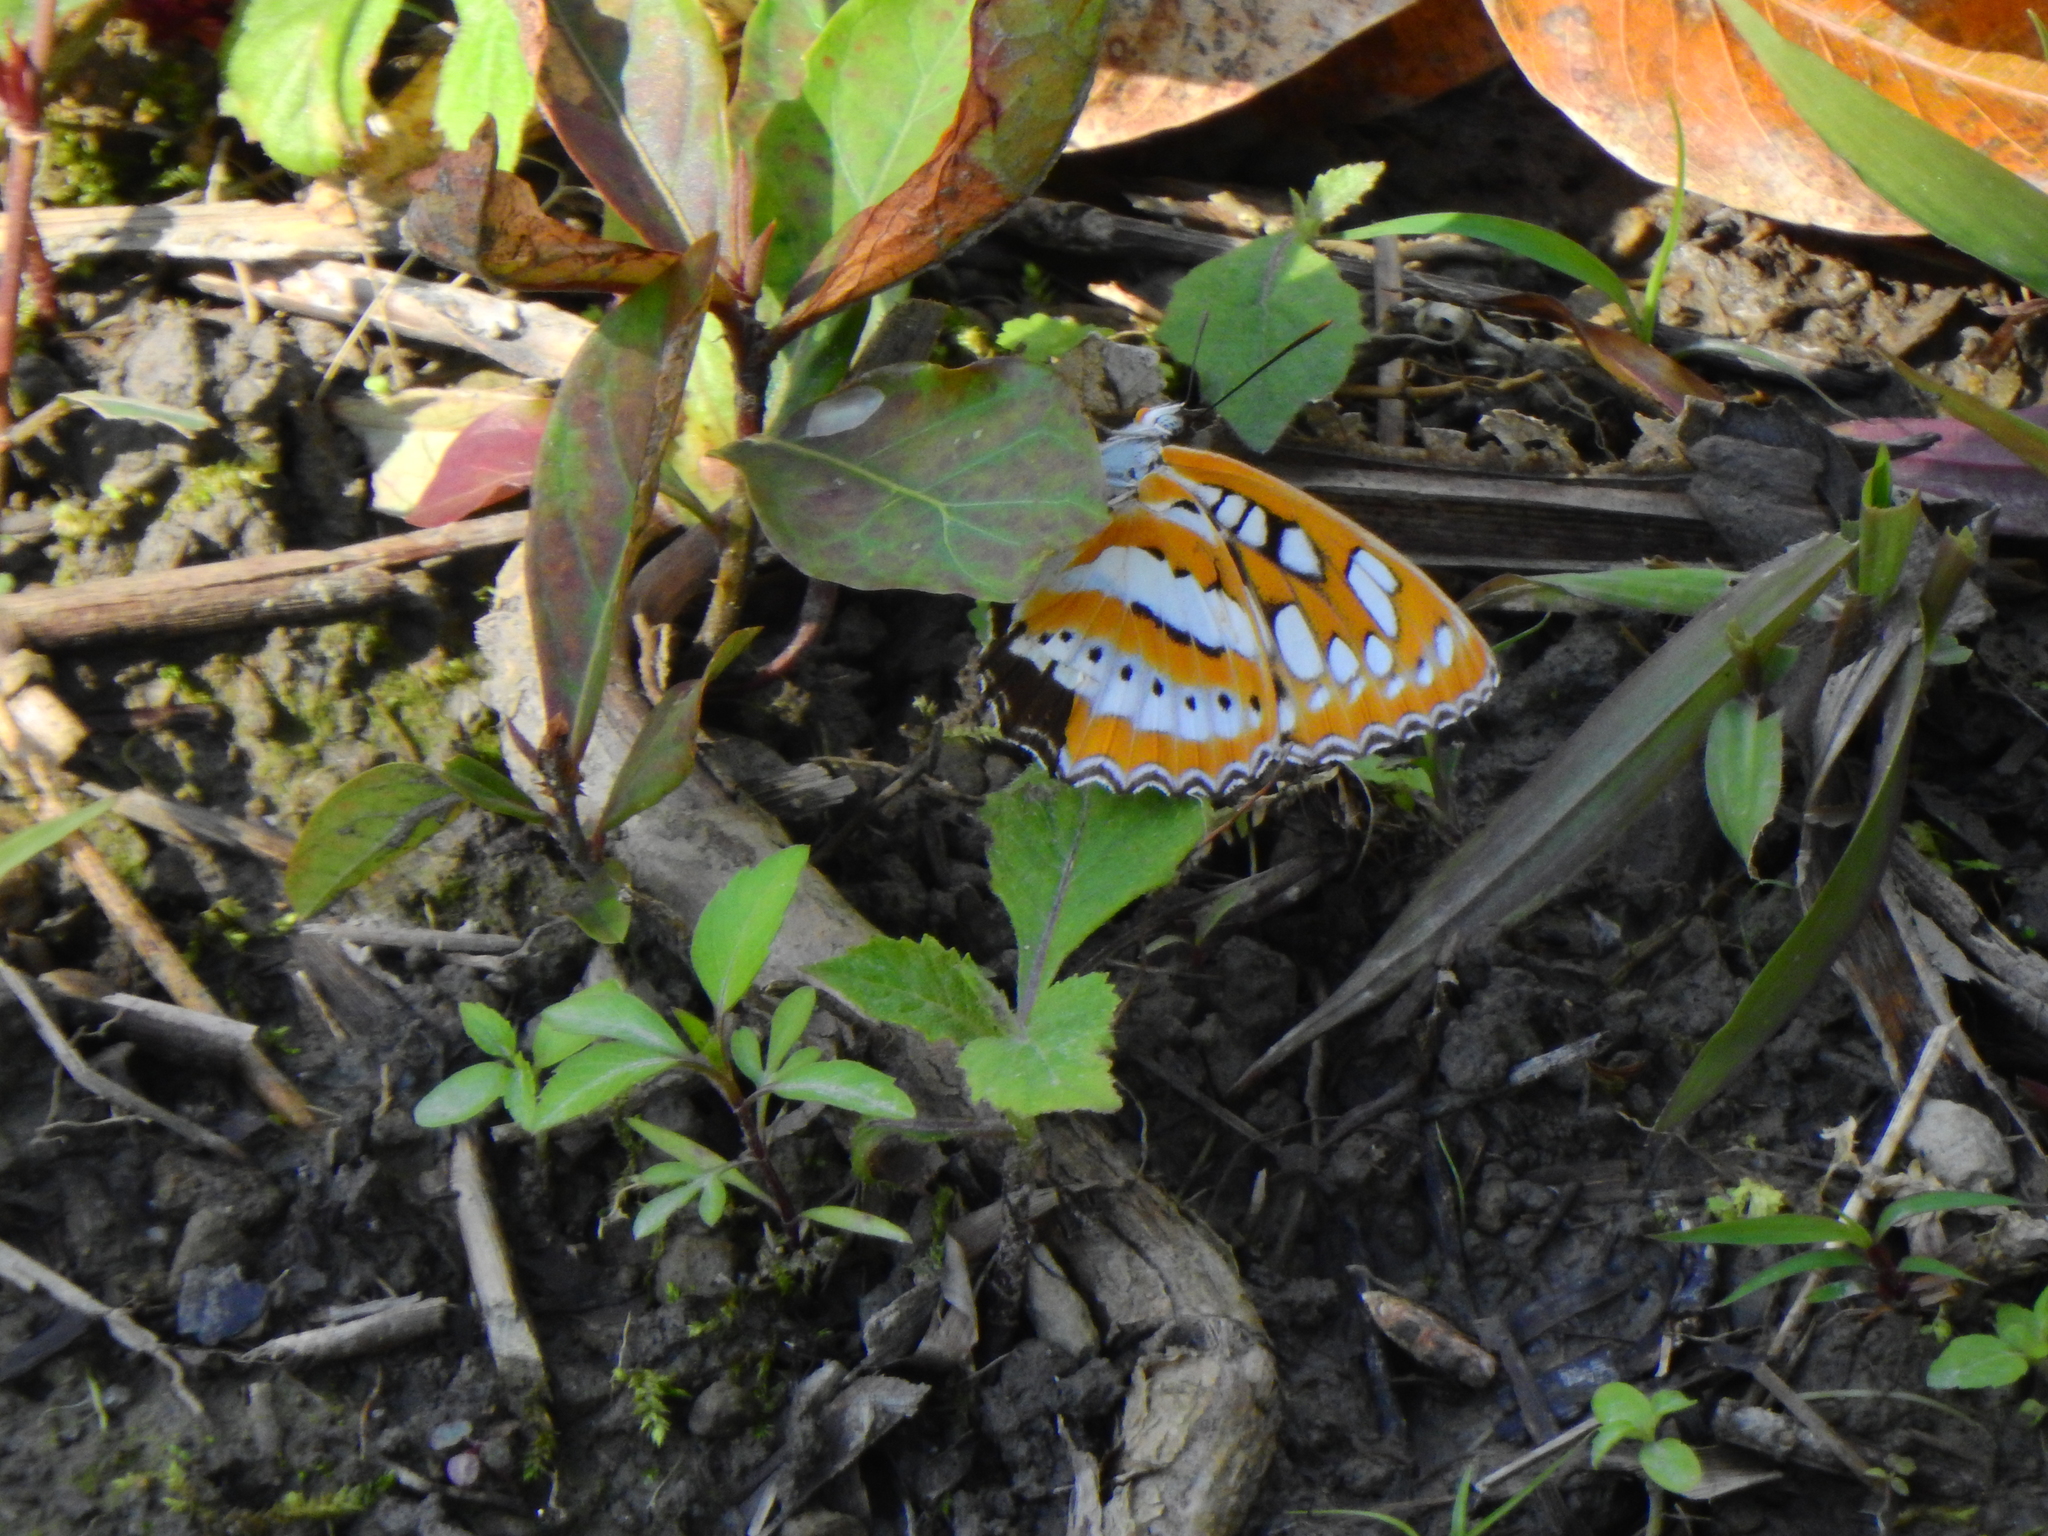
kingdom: Animalia
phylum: Arthropoda
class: Insecta
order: Lepidoptera
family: Nymphalidae
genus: Parathyma
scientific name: Parathyma perius
